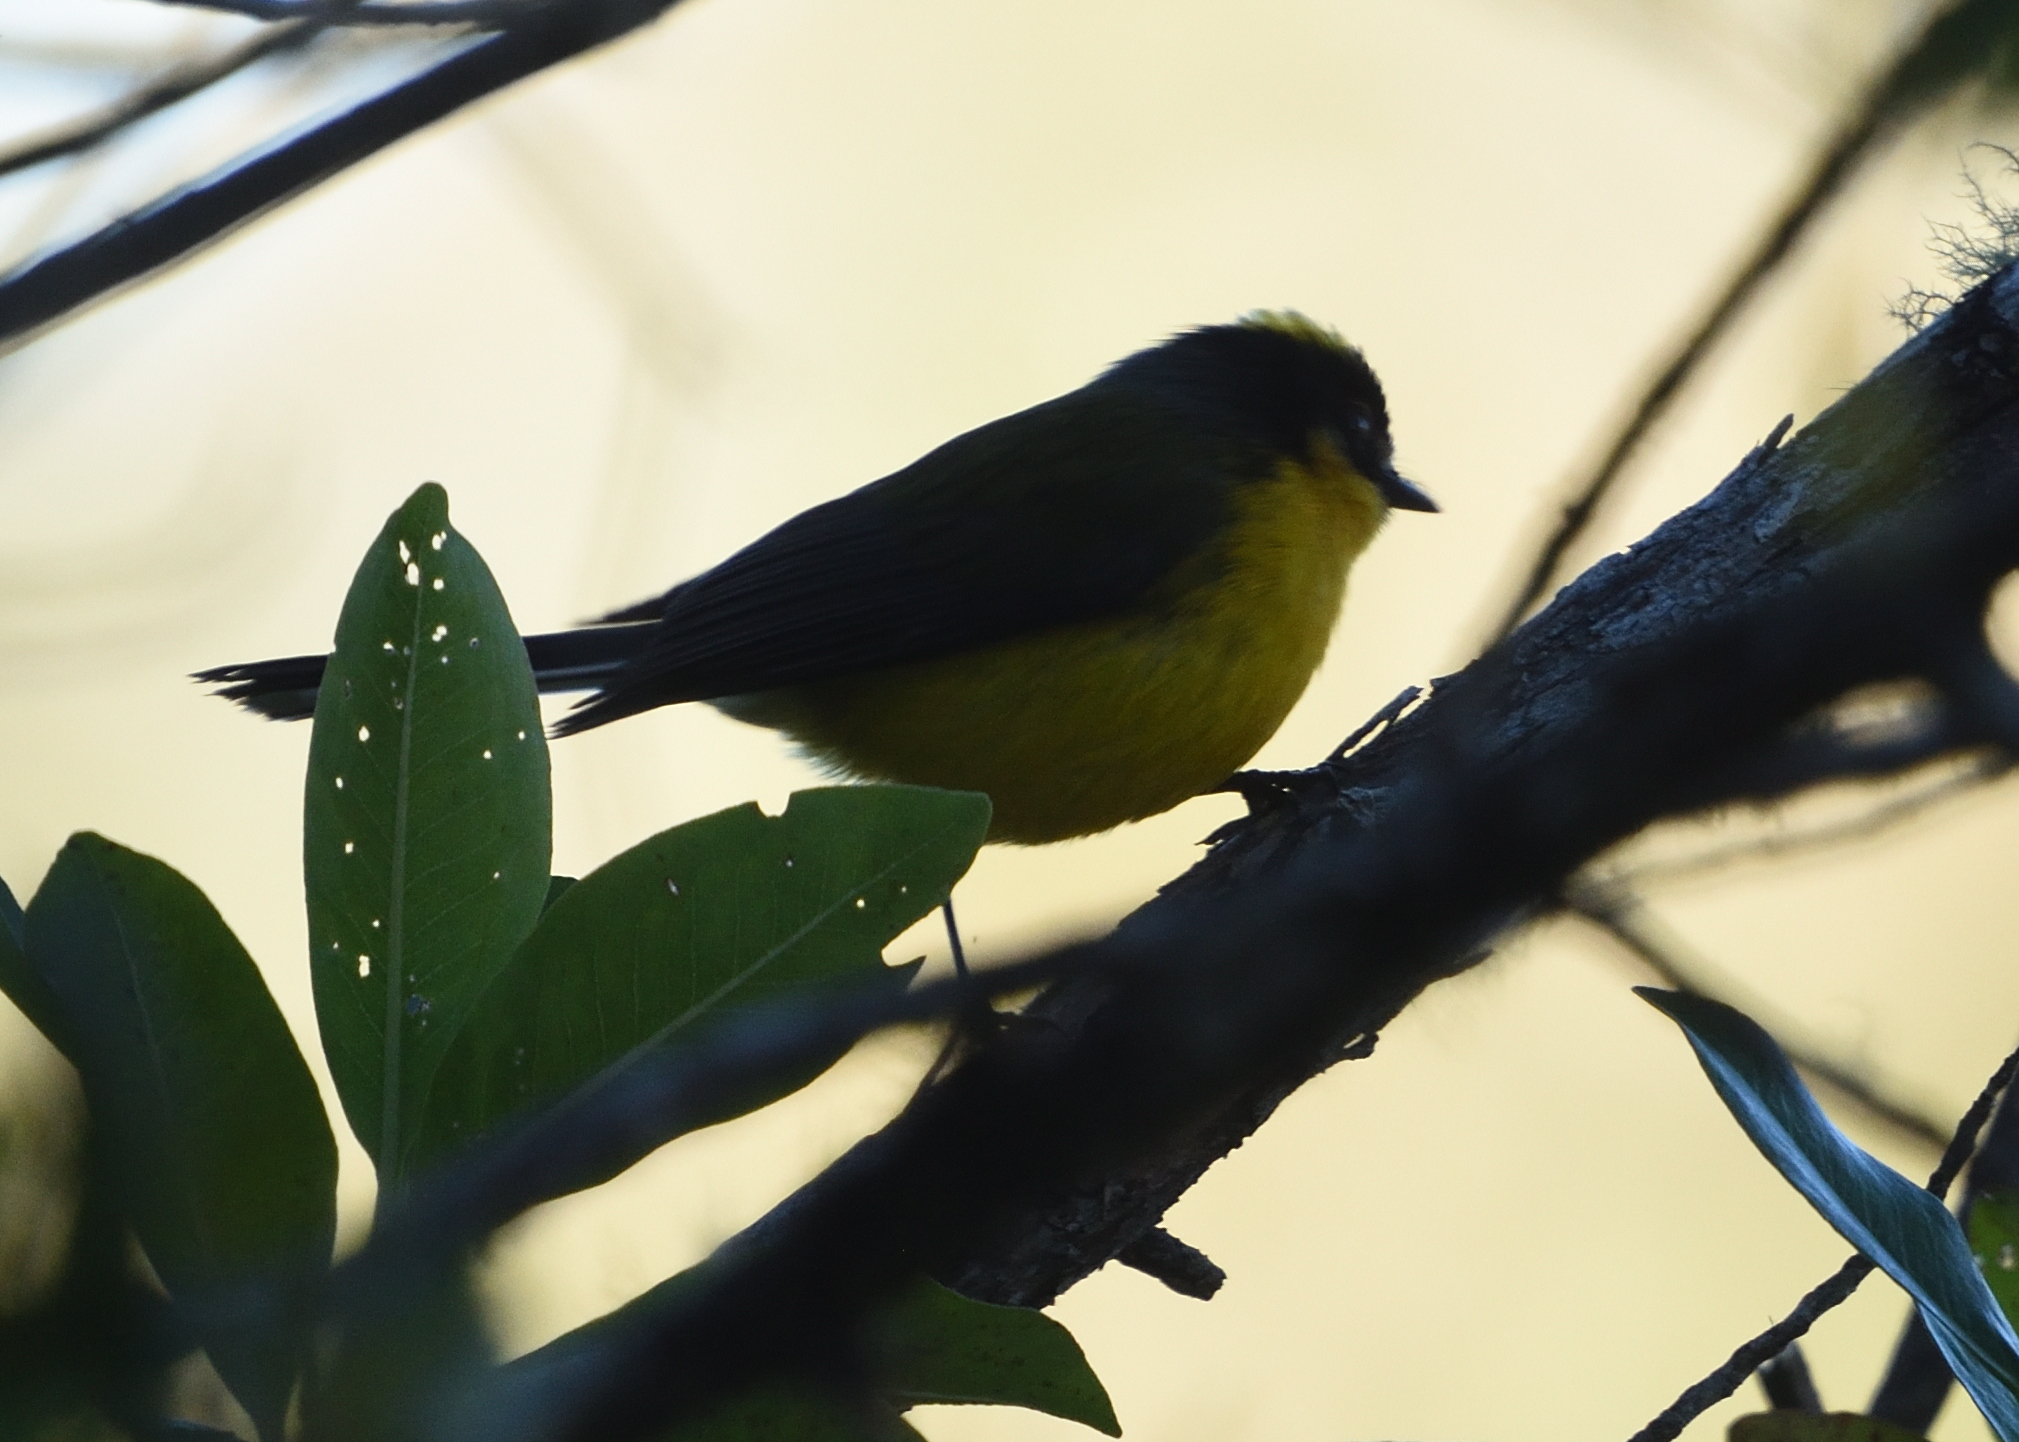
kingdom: Animalia
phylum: Chordata
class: Aves
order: Passeriformes
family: Parulidae
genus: Myioborus
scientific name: Myioborus flavivertex
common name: Yellow-crowned whitestart
